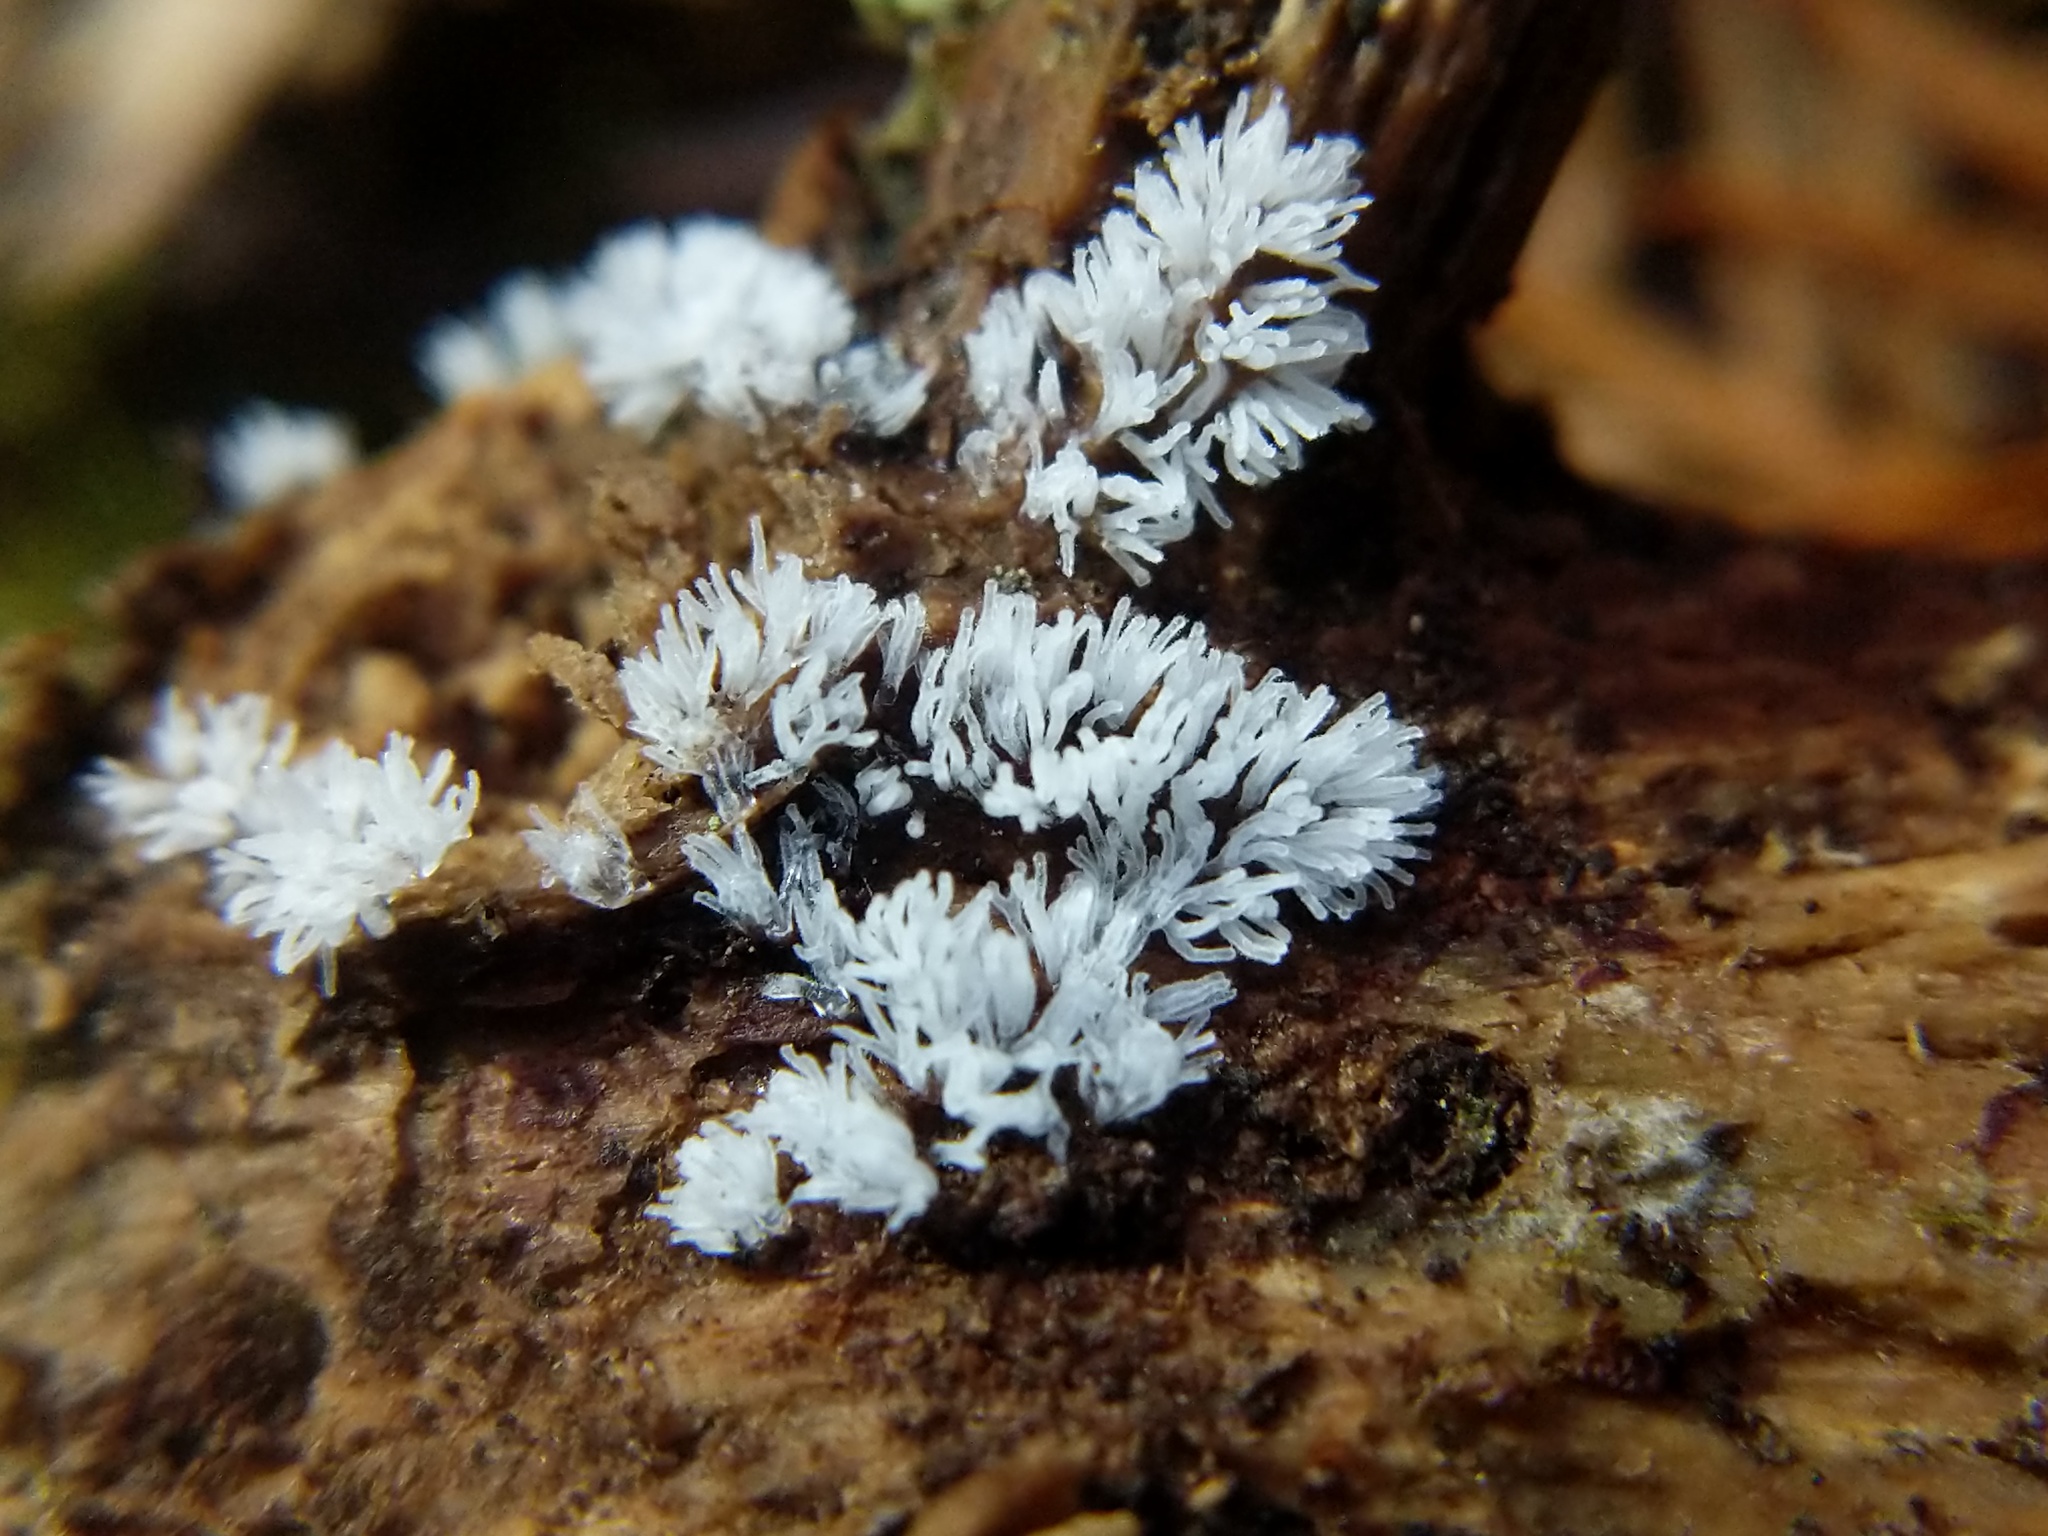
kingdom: Protozoa
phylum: Mycetozoa
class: Protosteliomycetes
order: Ceratiomyxales
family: Ceratiomyxaceae
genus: Ceratiomyxa
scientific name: Ceratiomyxa fruticulosa
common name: Honeycomb coral slime mold
